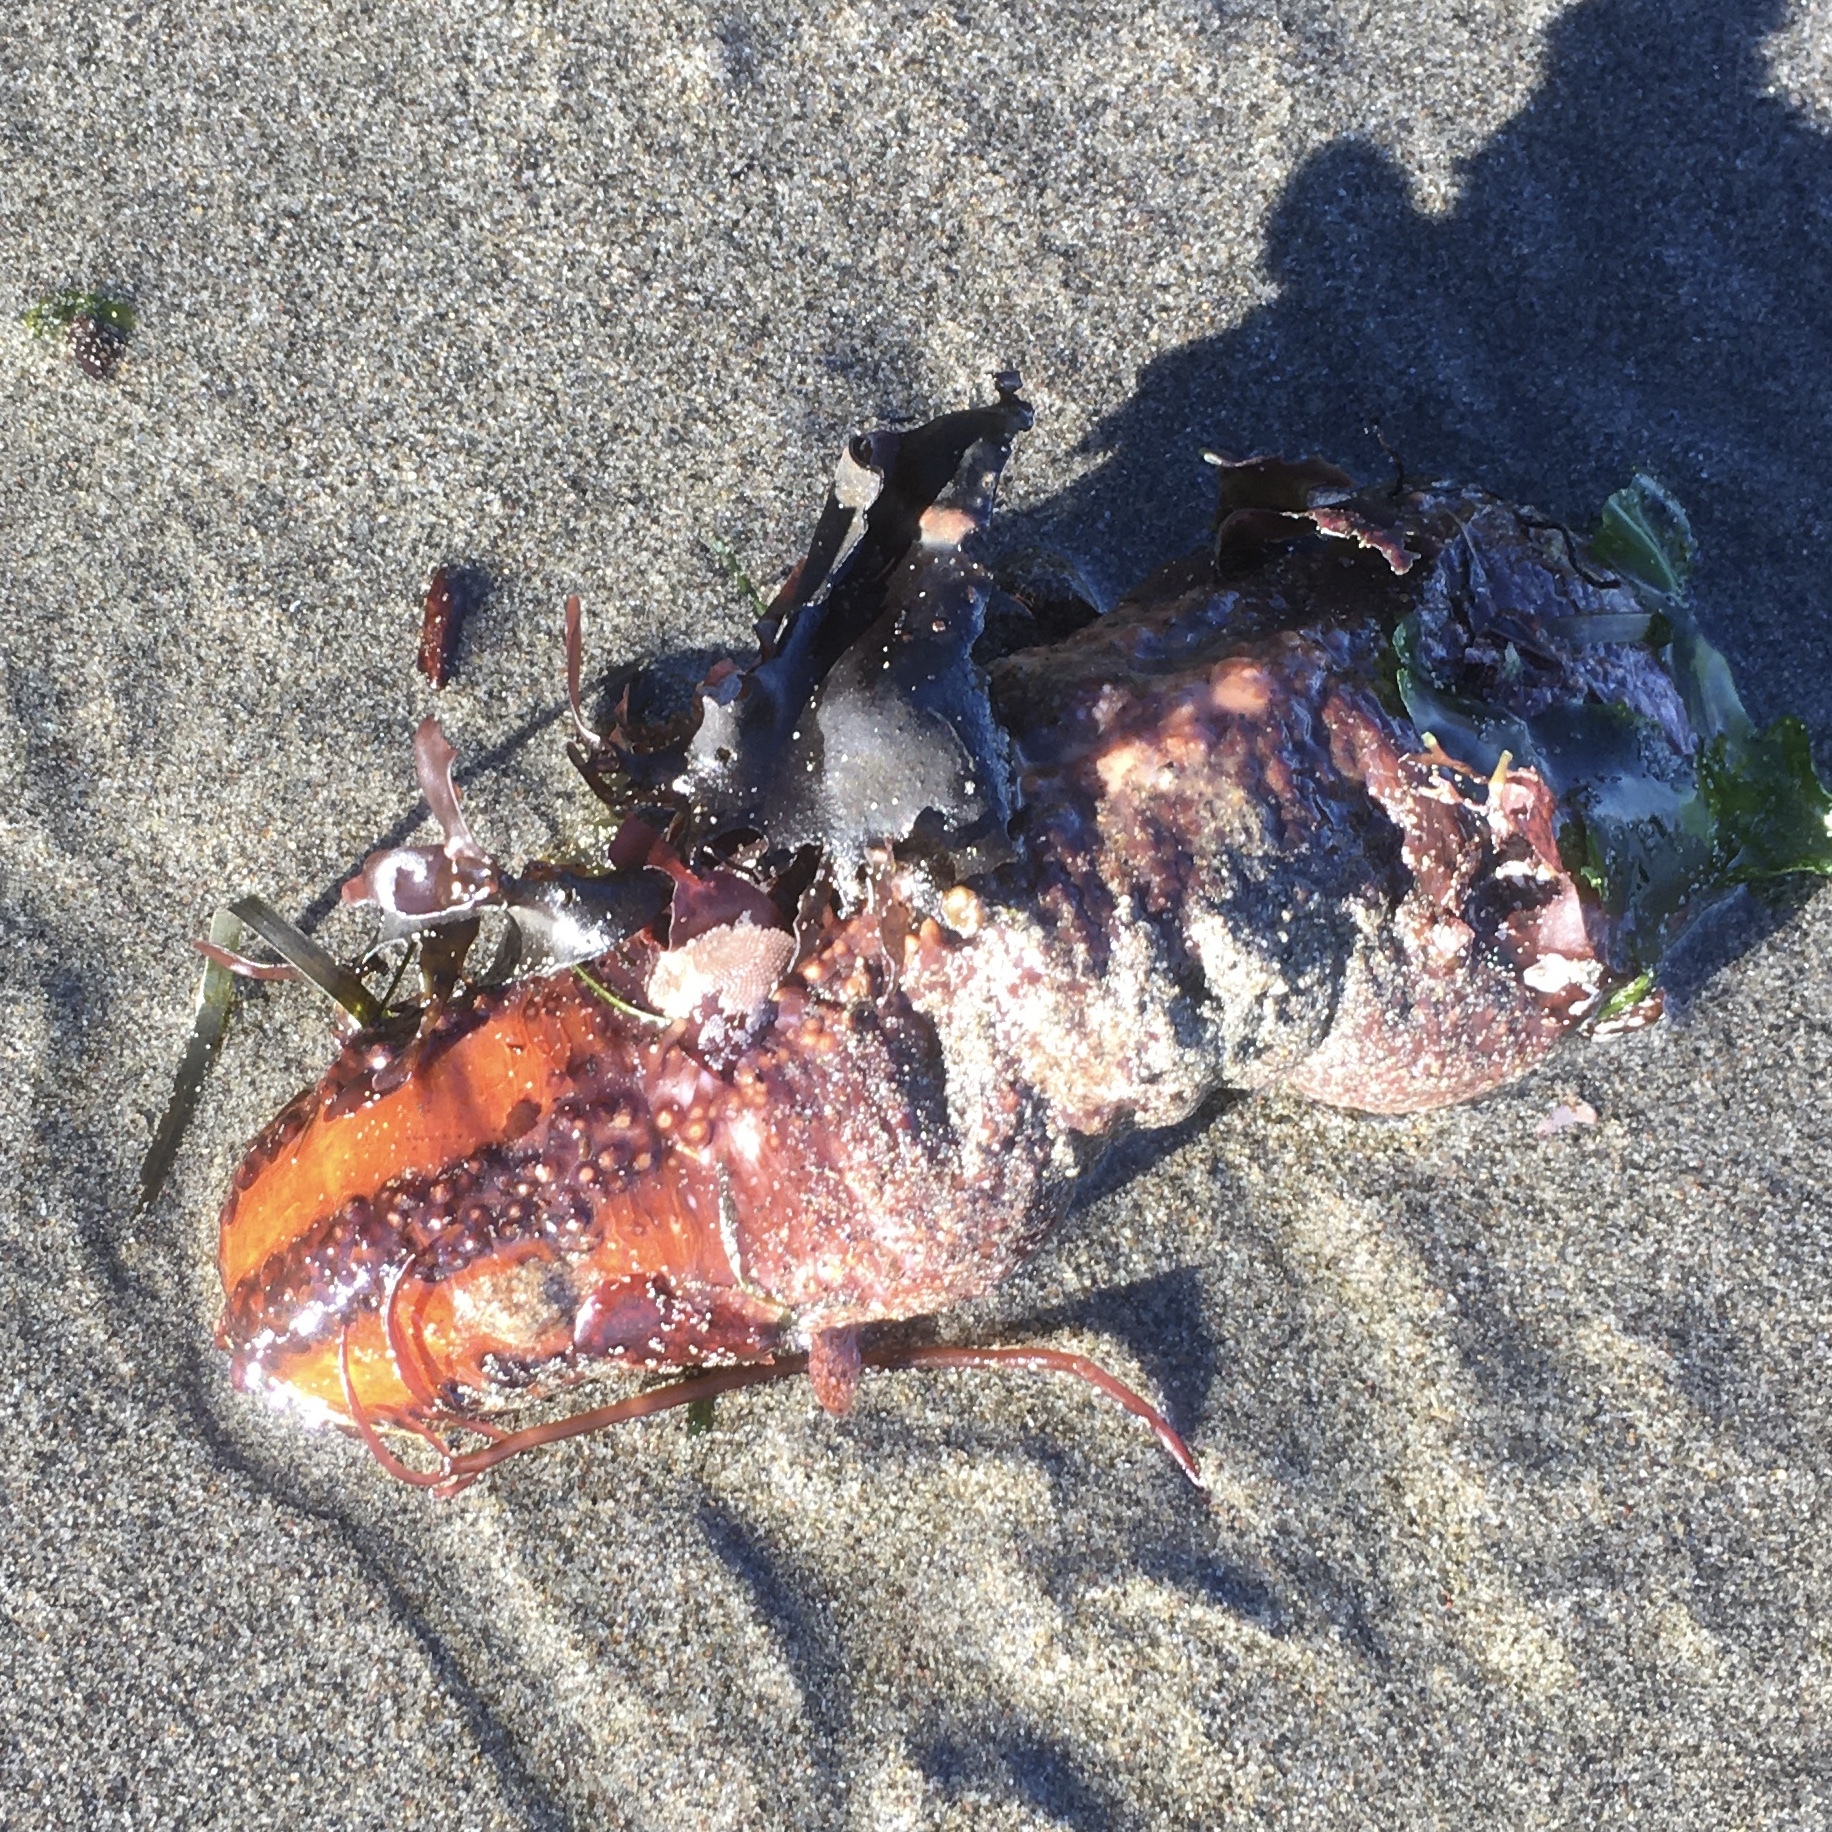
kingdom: Animalia
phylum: Echinodermata
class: Holothuroidea
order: Dendrochirotida
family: Cucumariidae
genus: Cucumaria
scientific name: Cucumaria miniata
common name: Orange sea cucumber
